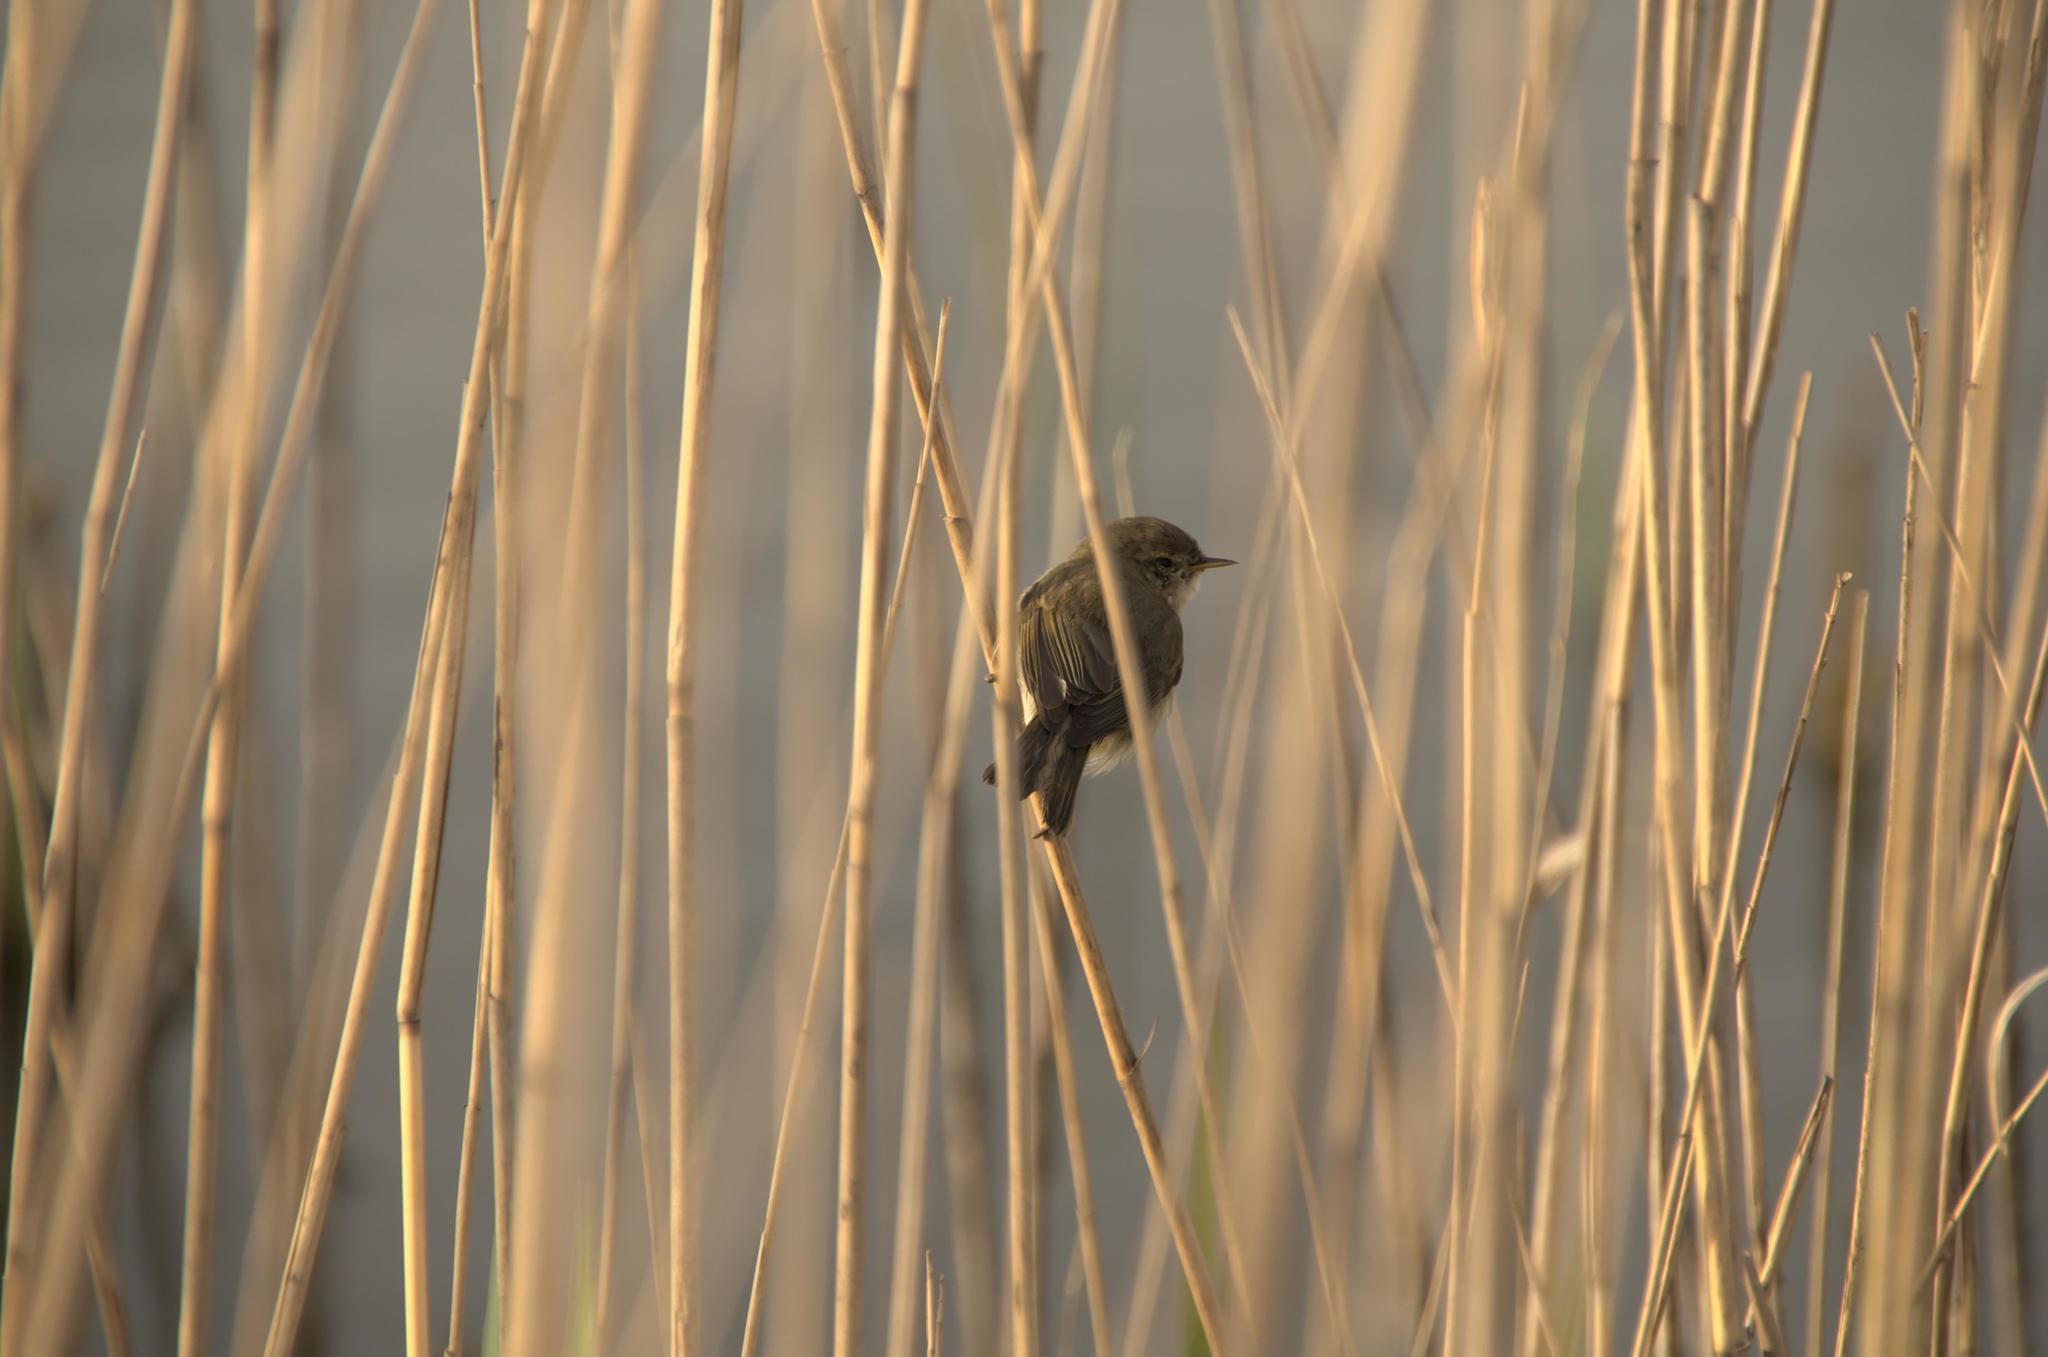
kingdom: Animalia
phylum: Chordata
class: Aves
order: Passeriformes
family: Phylloscopidae
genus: Phylloscopus
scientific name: Phylloscopus collybita
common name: Common chiffchaff
